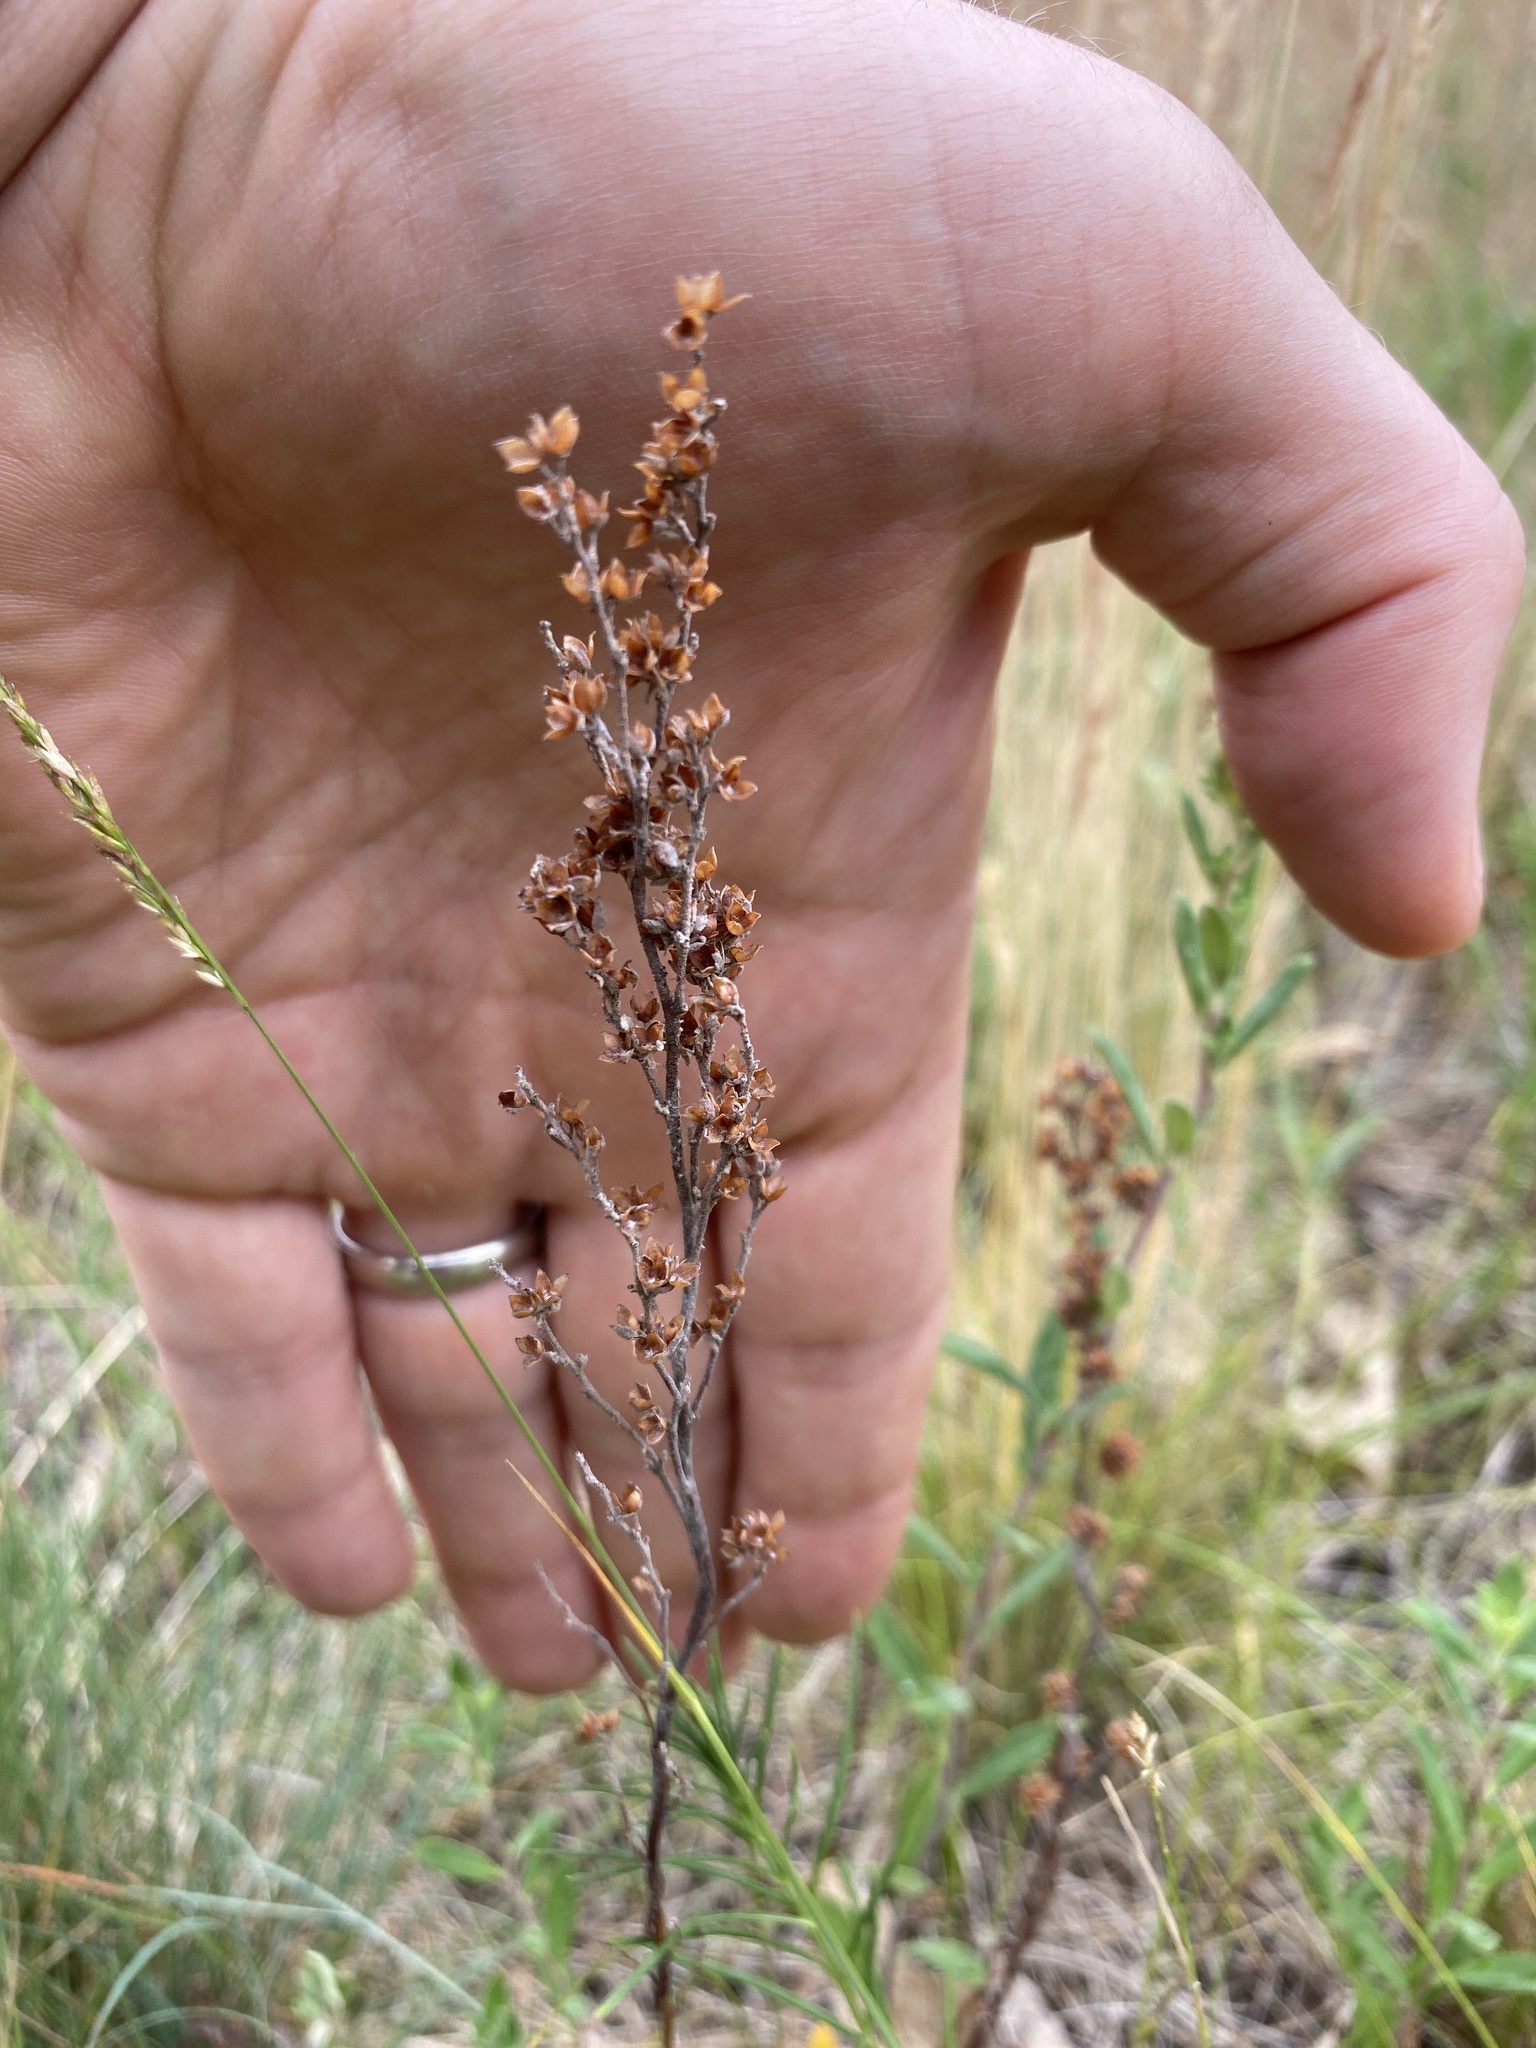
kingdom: Plantae
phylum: Tracheophyta
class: Magnoliopsida
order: Malvales
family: Cistaceae
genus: Lechea
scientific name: Lechea stricta
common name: Bushy pinweed
